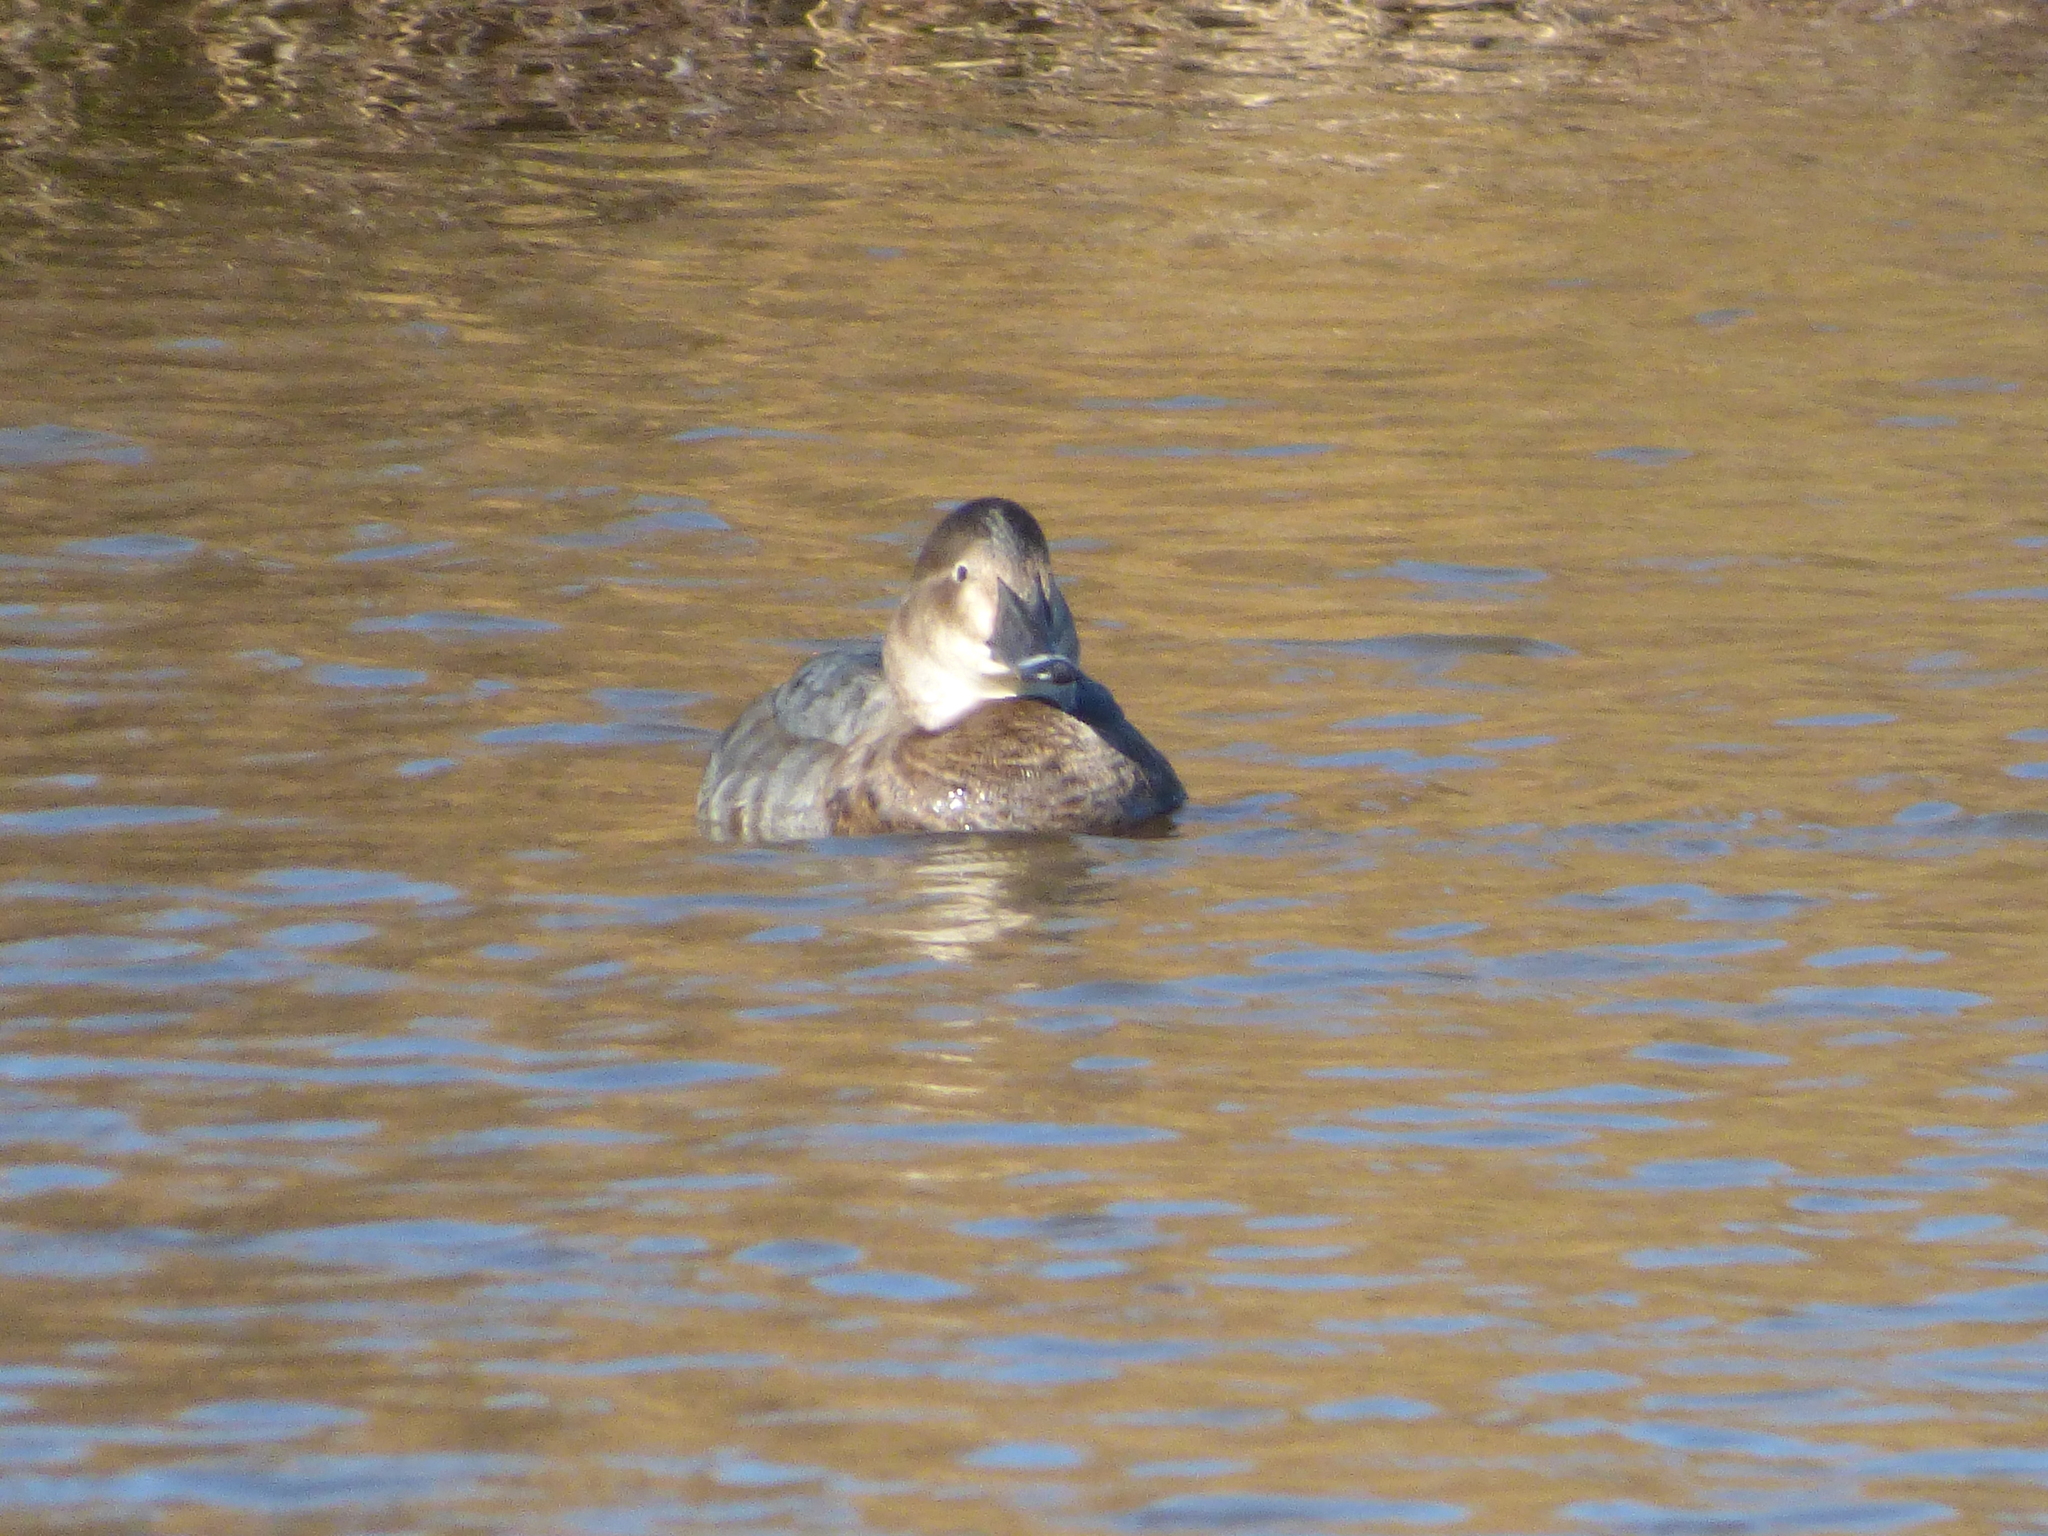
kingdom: Animalia
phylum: Chordata
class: Aves
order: Anseriformes
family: Anatidae
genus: Aythya
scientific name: Aythya ferina
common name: Common pochard
